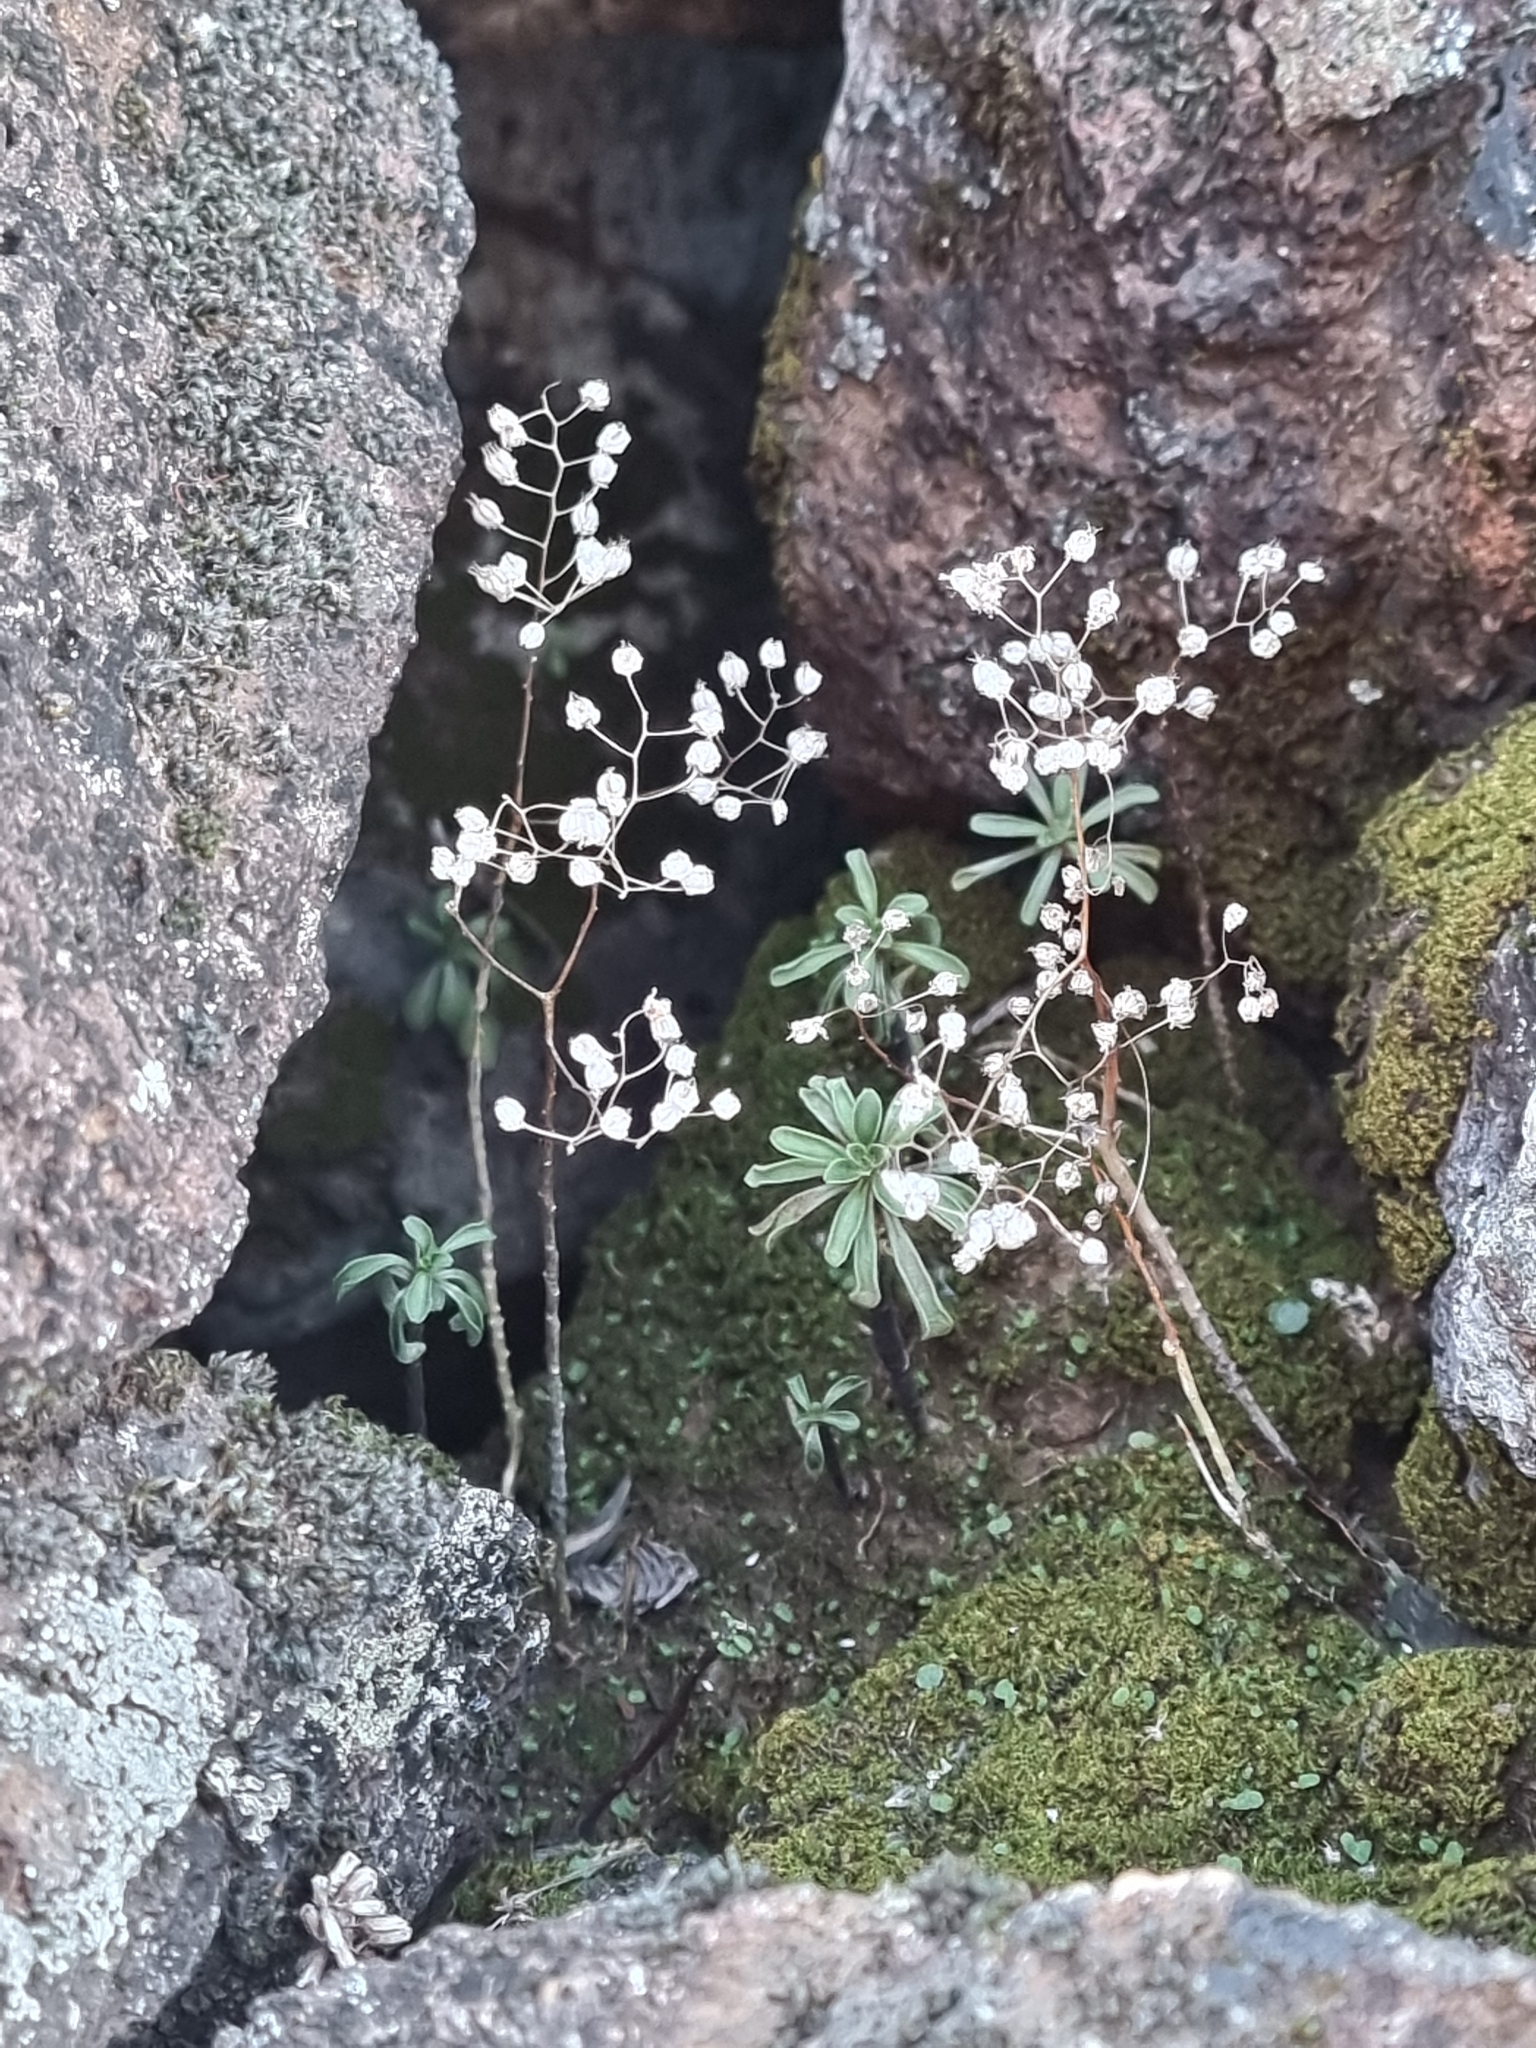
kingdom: Plantae
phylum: Tracheophyta
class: Magnoliopsida
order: Saxifragales
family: Crassulaceae
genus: Aichryson
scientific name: Aichryson dumosum
